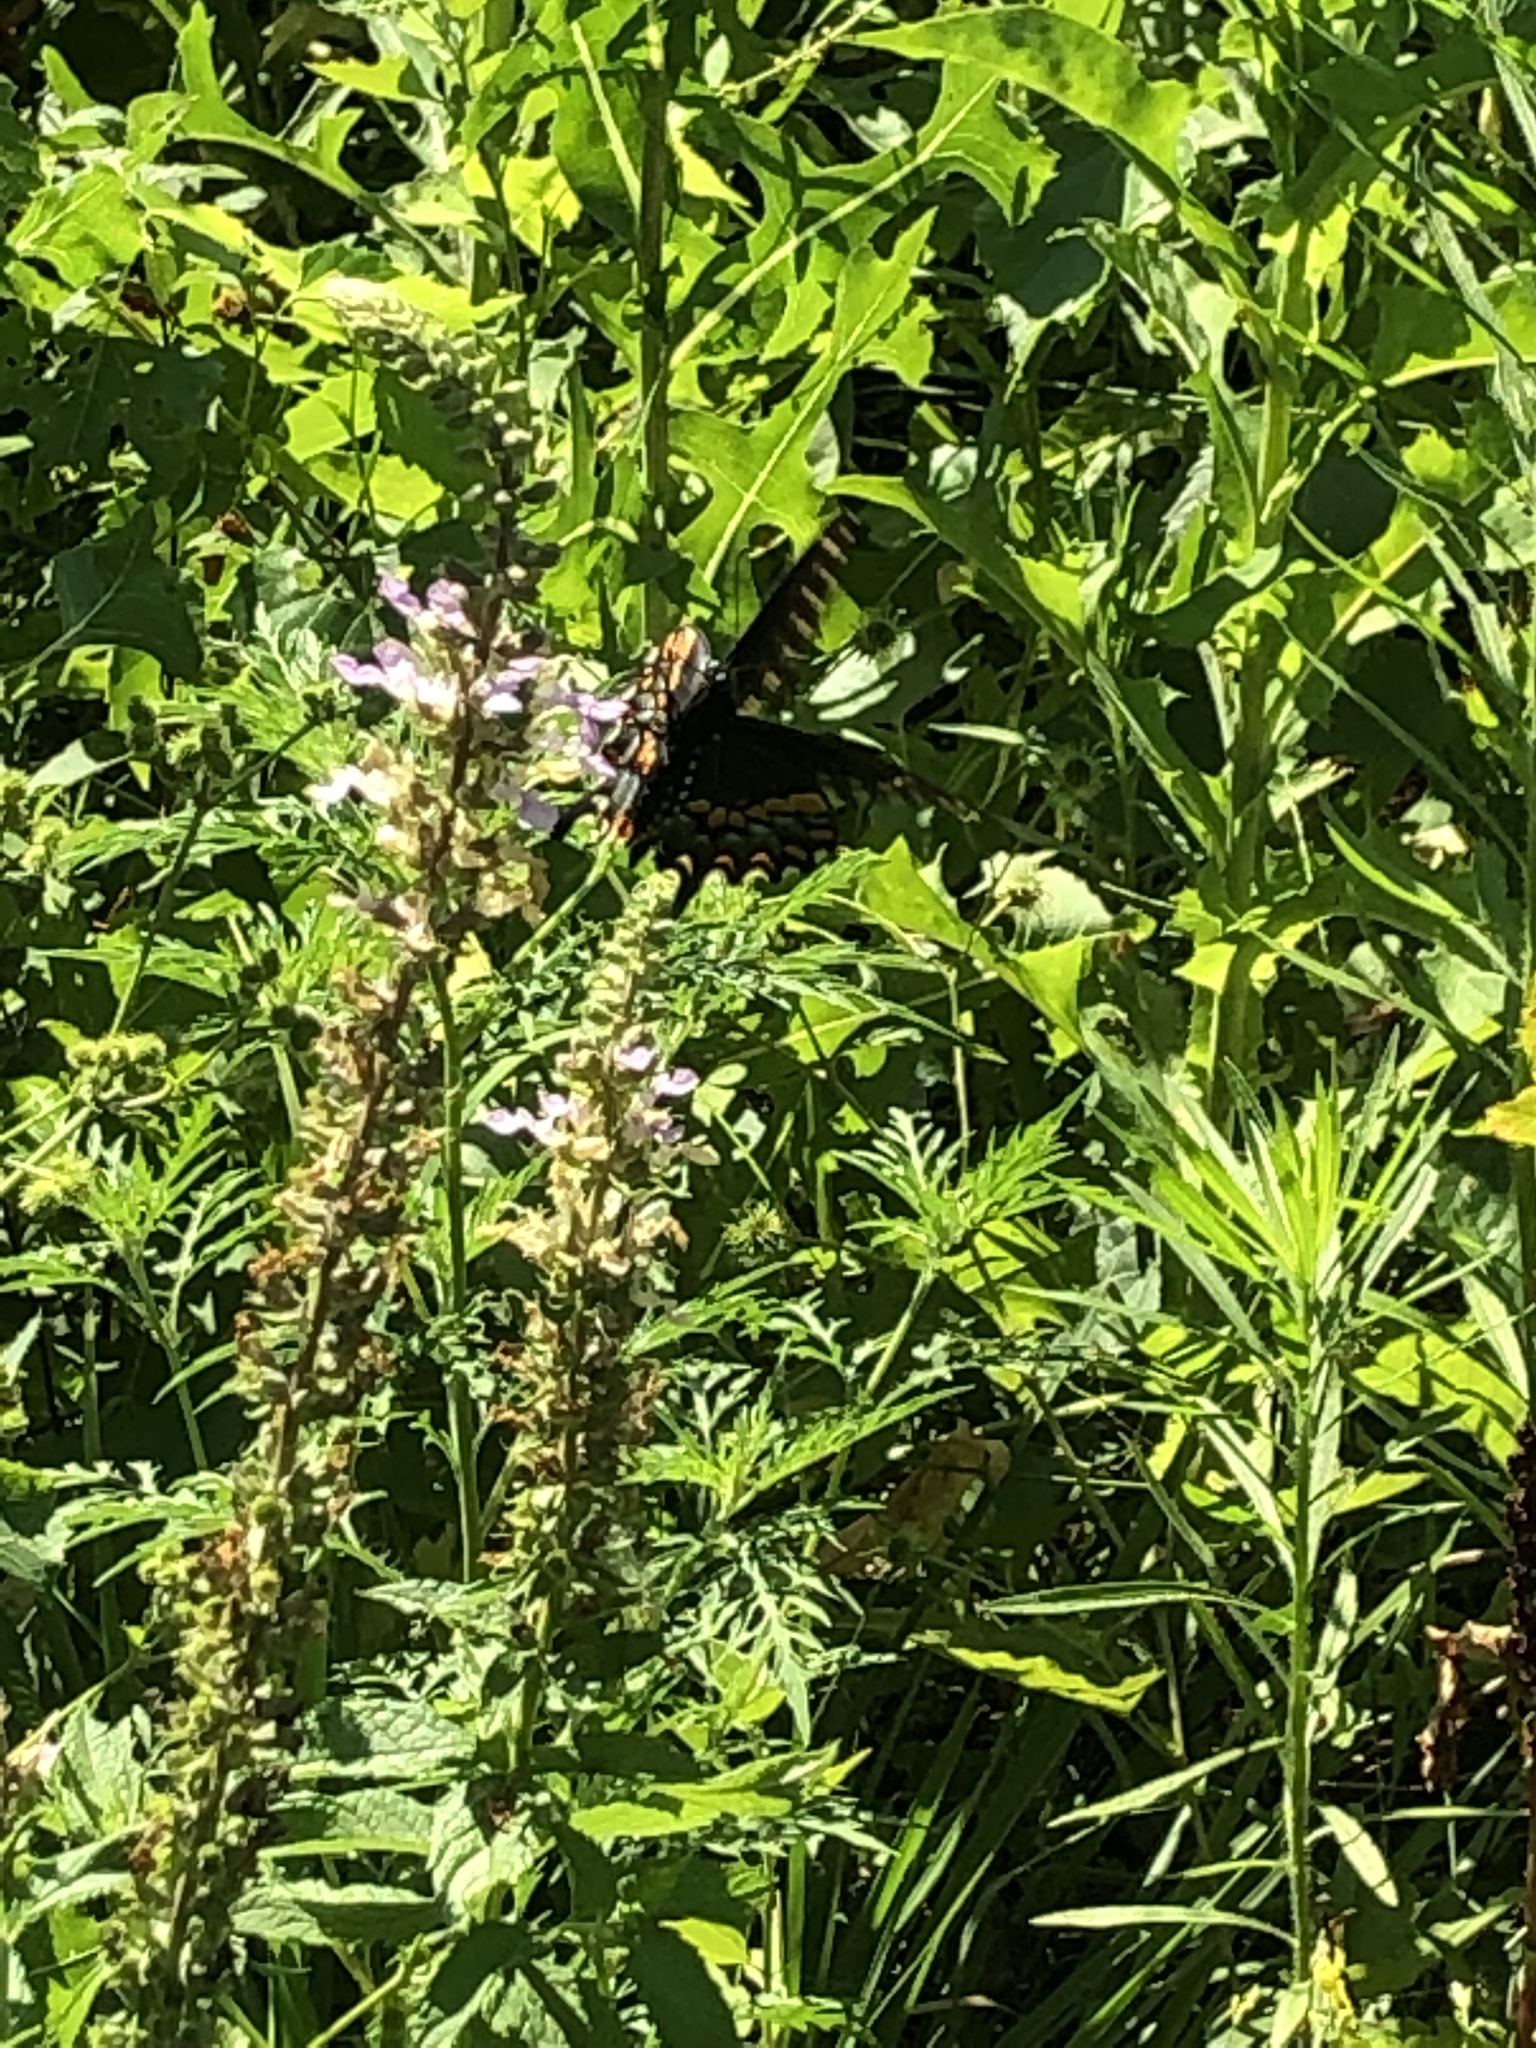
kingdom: Animalia
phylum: Arthropoda
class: Insecta
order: Lepidoptera
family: Papilionidae
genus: Papilio
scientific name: Papilio polyxenes
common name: Black swallowtail
